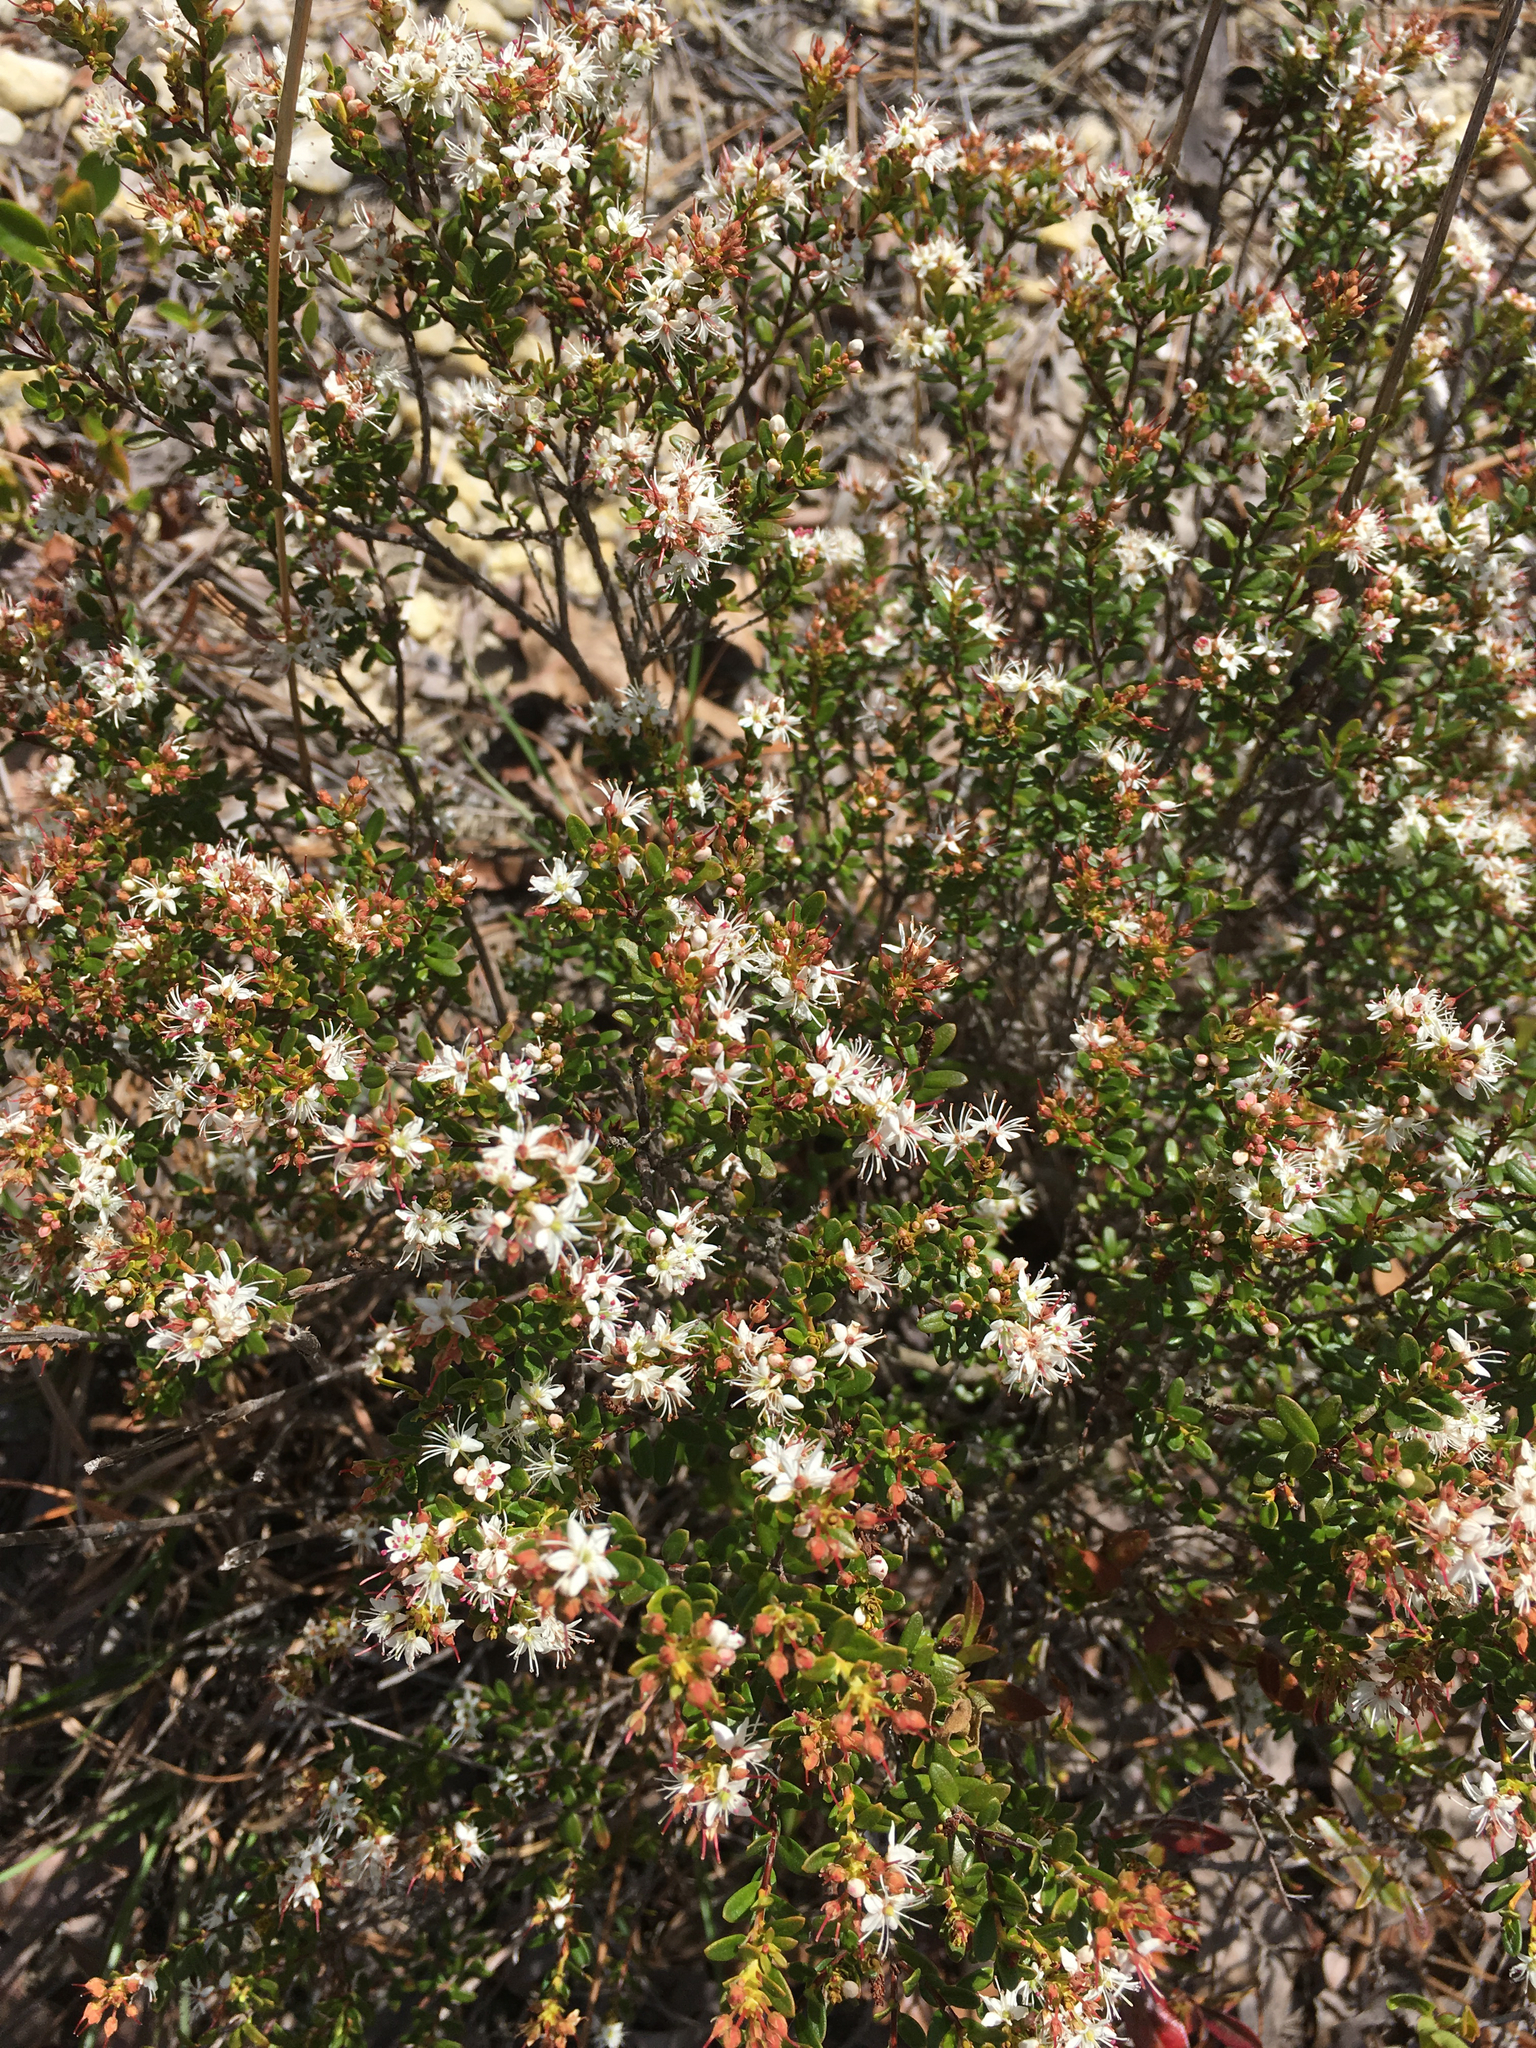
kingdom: Plantae
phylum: Tracheophyta
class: Magnoliopsida
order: Ericales
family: Ericaceae
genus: Kalmia
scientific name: Kalmia buxifolia
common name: Sandmyrtle
